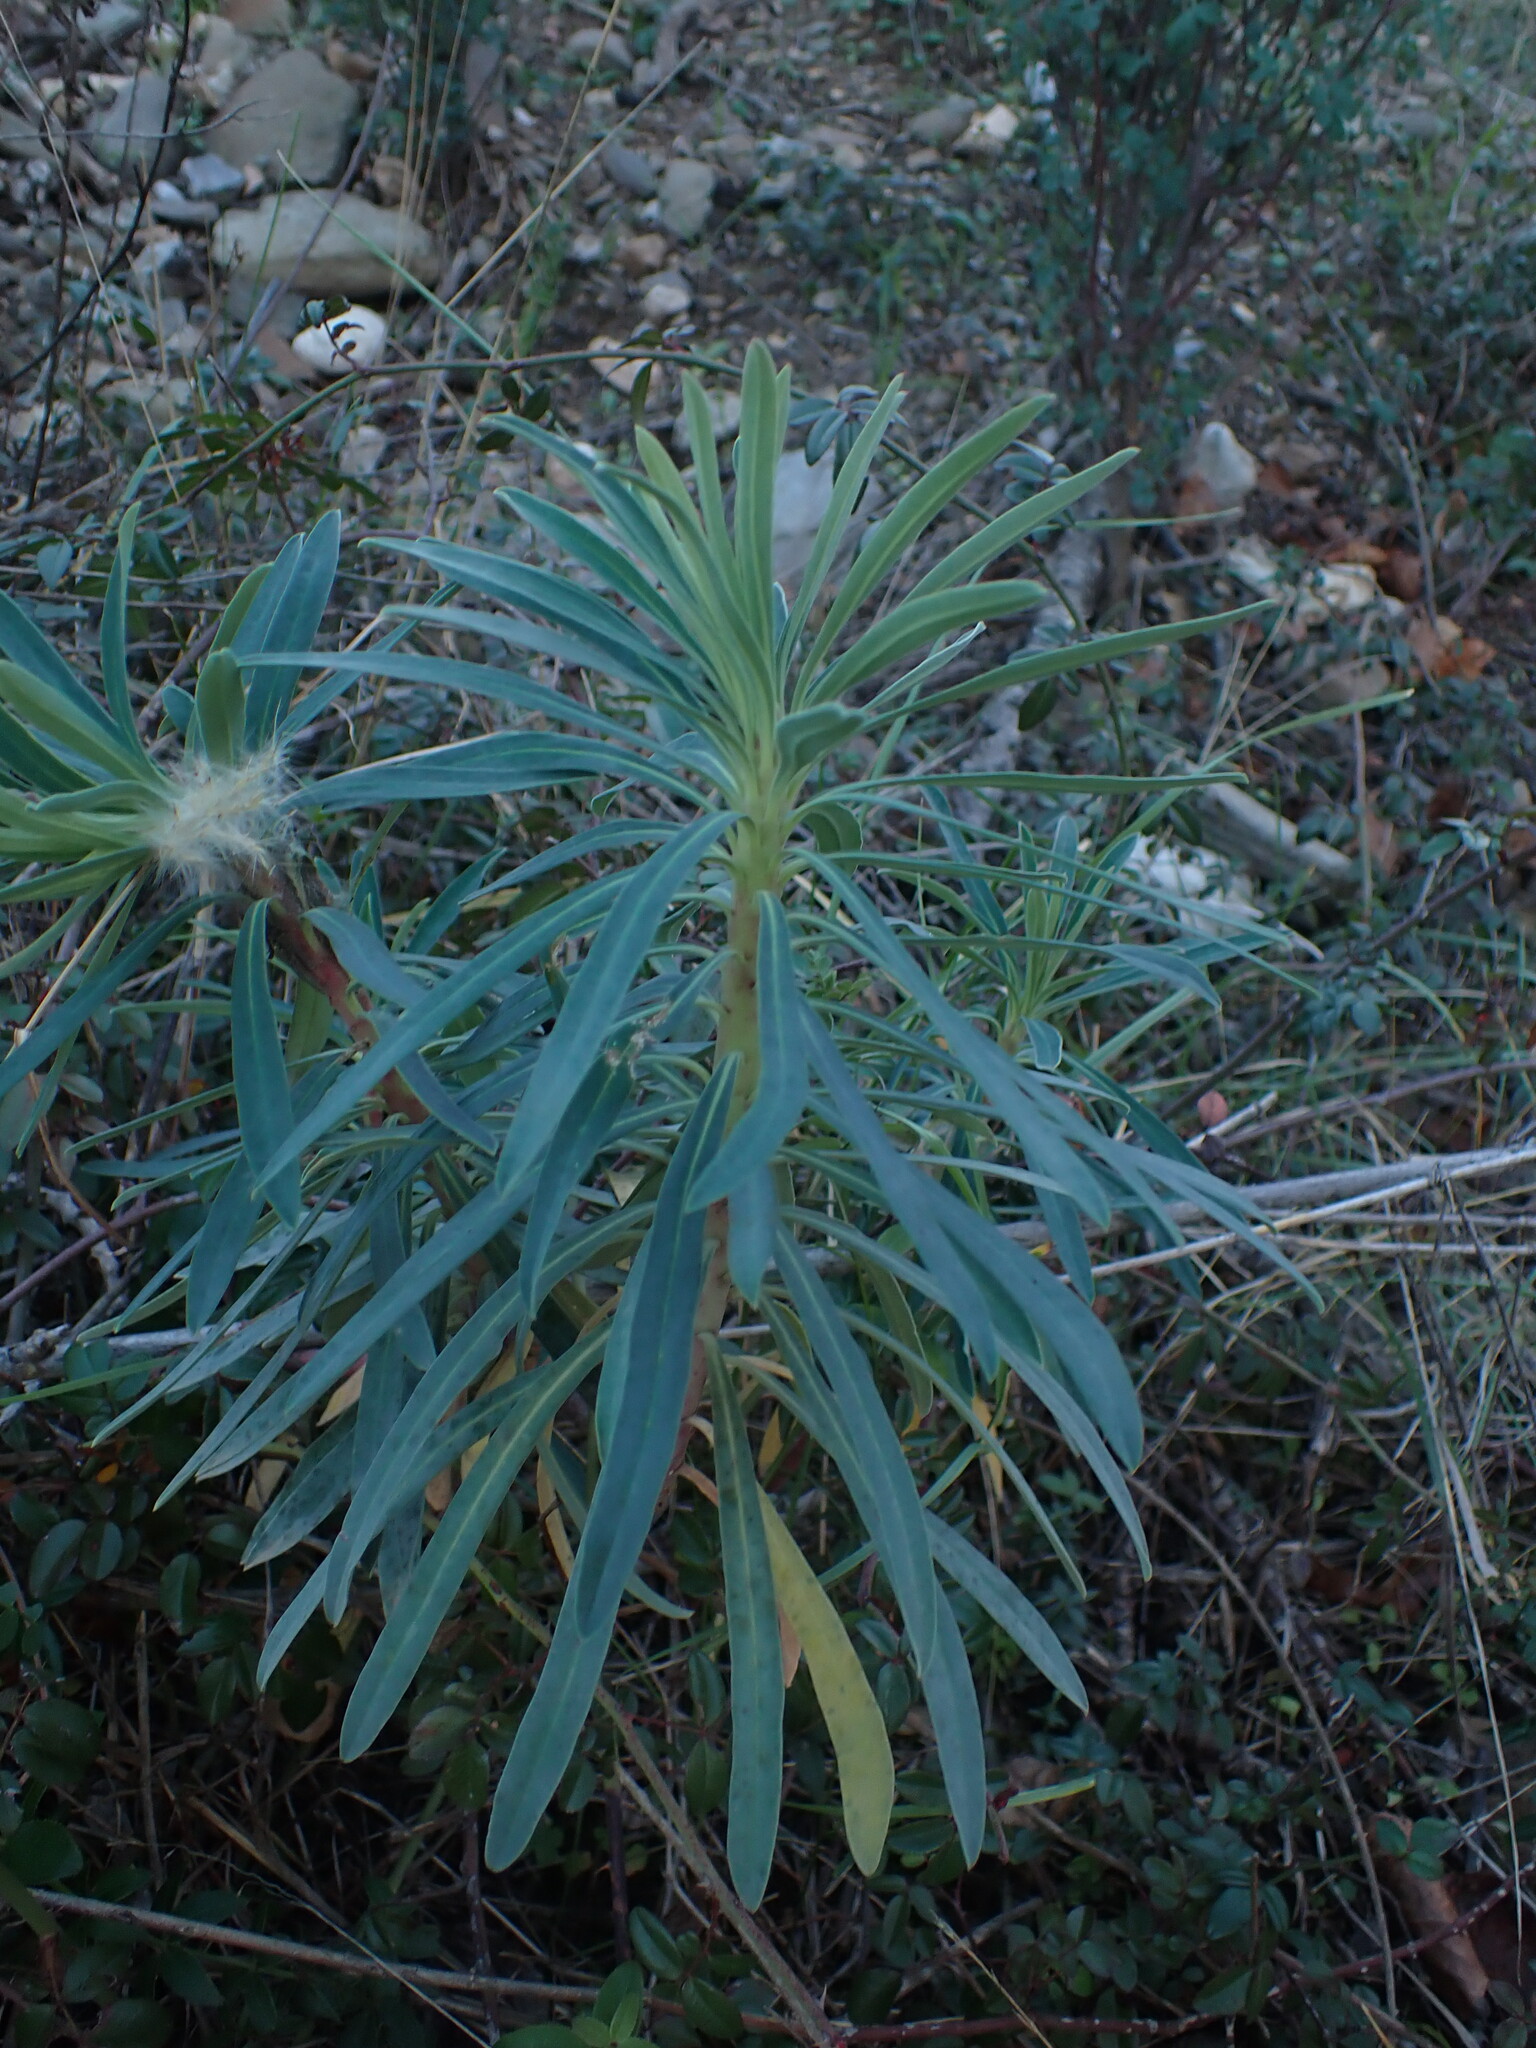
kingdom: Plantae
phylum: Tracheophyta
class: Magnoliopsida
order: Malpighiales
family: Euphorbiaceae
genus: Euphorbia
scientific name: Euphorbia characias
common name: Mediterranean spurge
